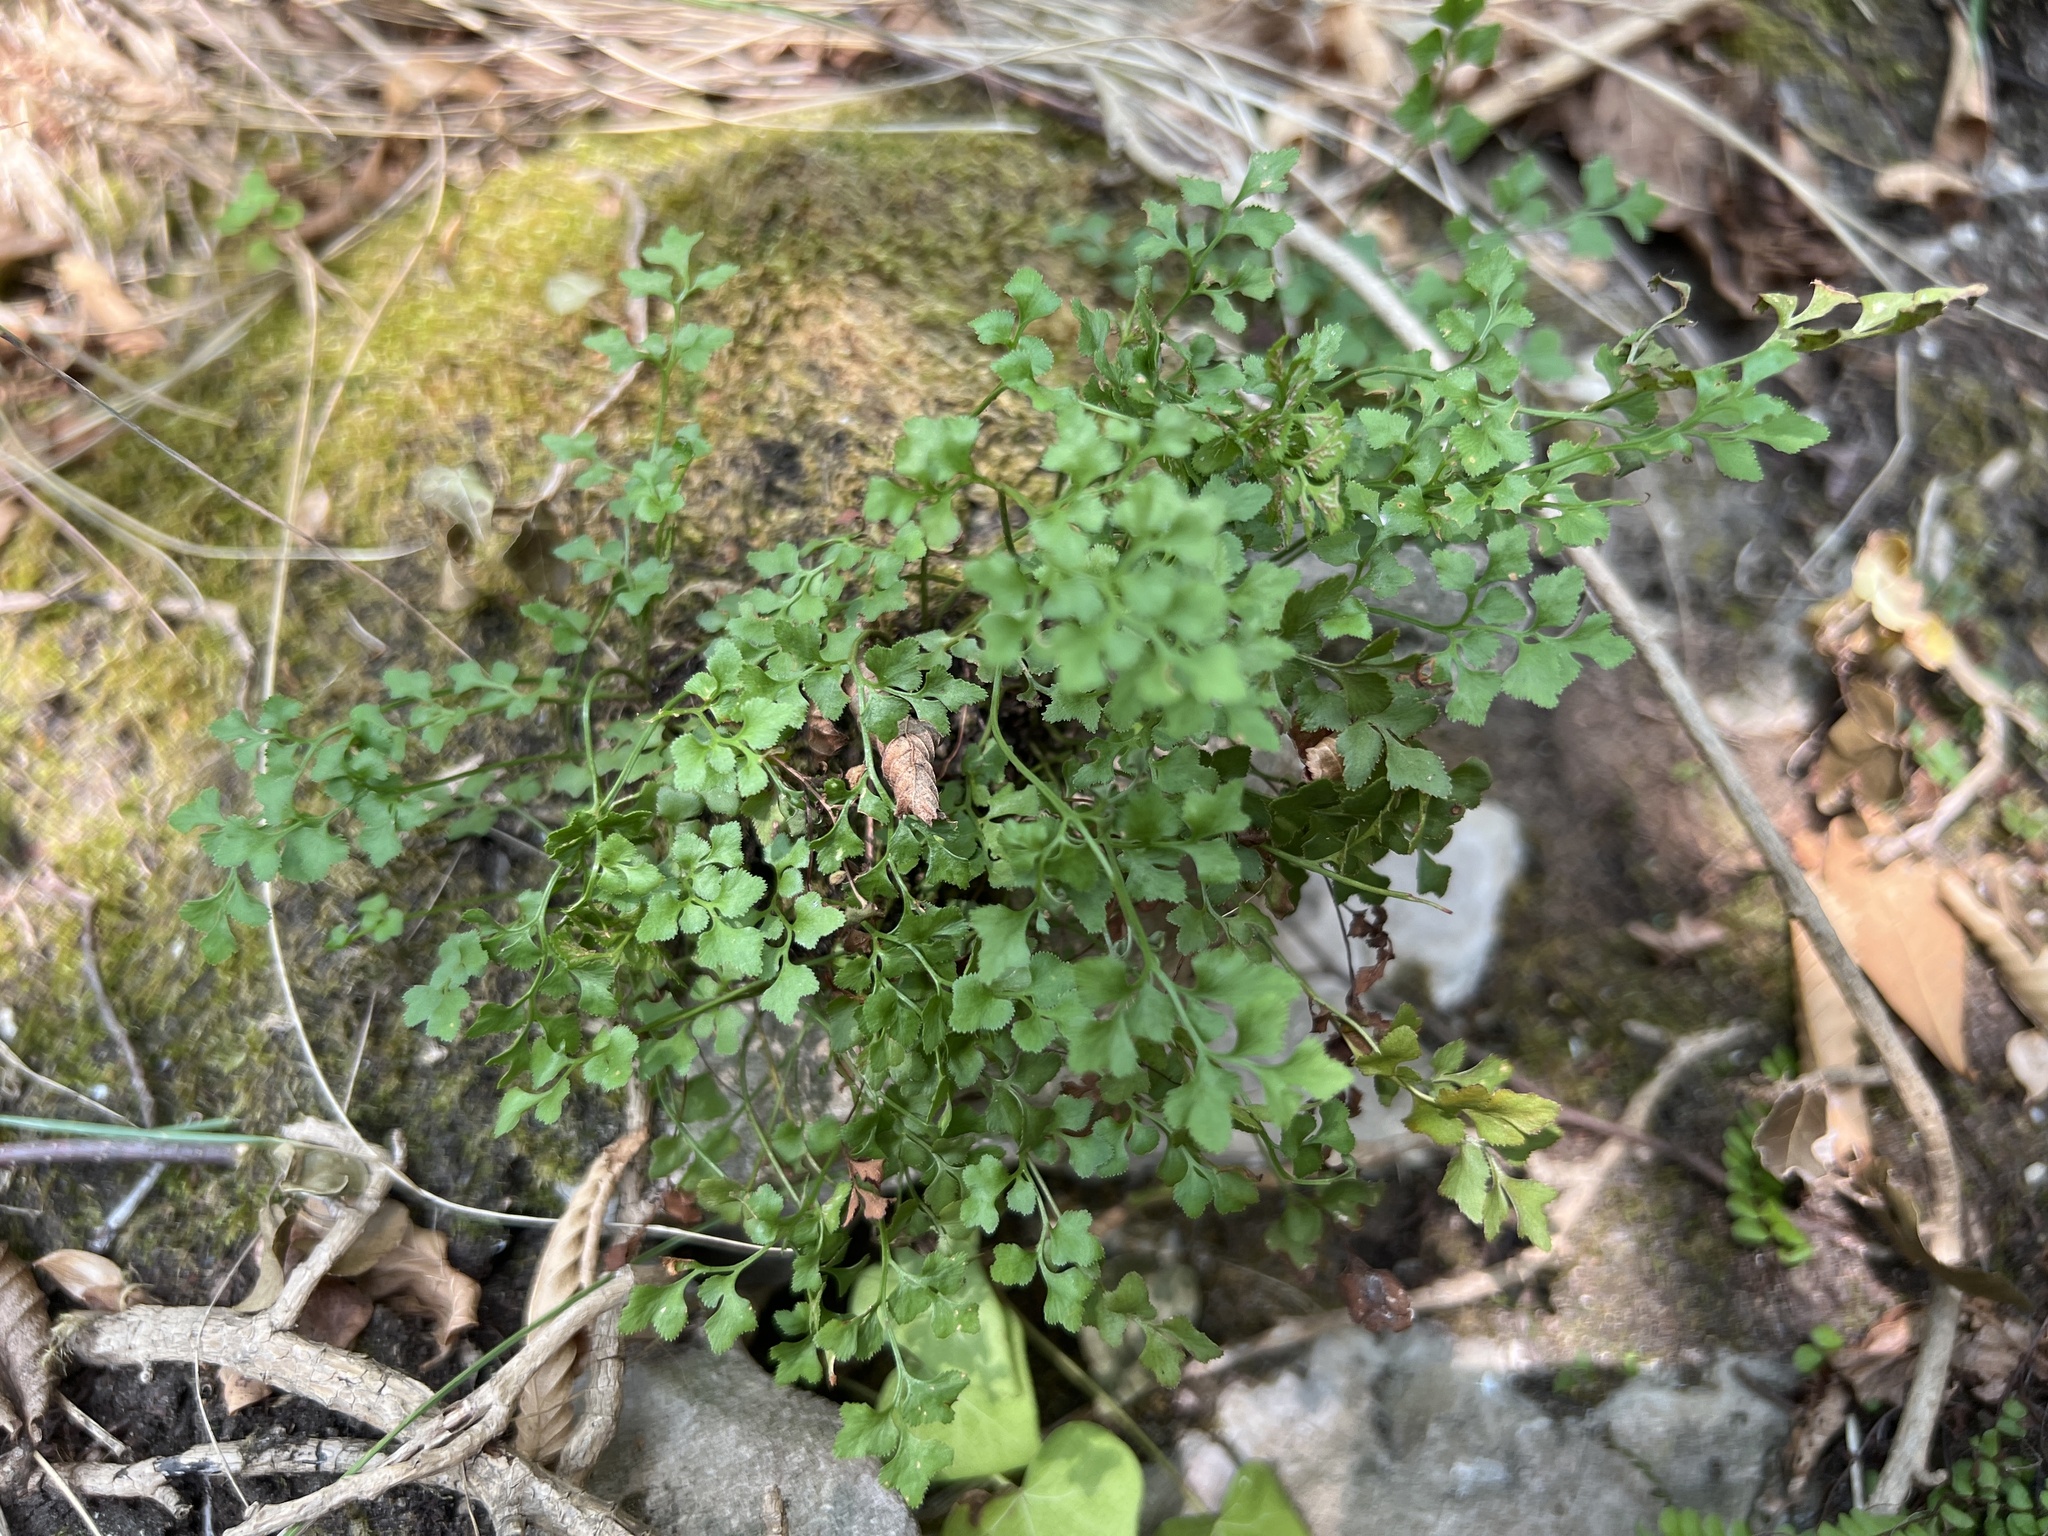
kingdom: Plantae
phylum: Tracheophyta
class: Polypodiopsida
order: Polypodiales
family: Aspleniaceae
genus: Asplenium
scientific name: Asplenium ruta-muraria
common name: Wall-rue
